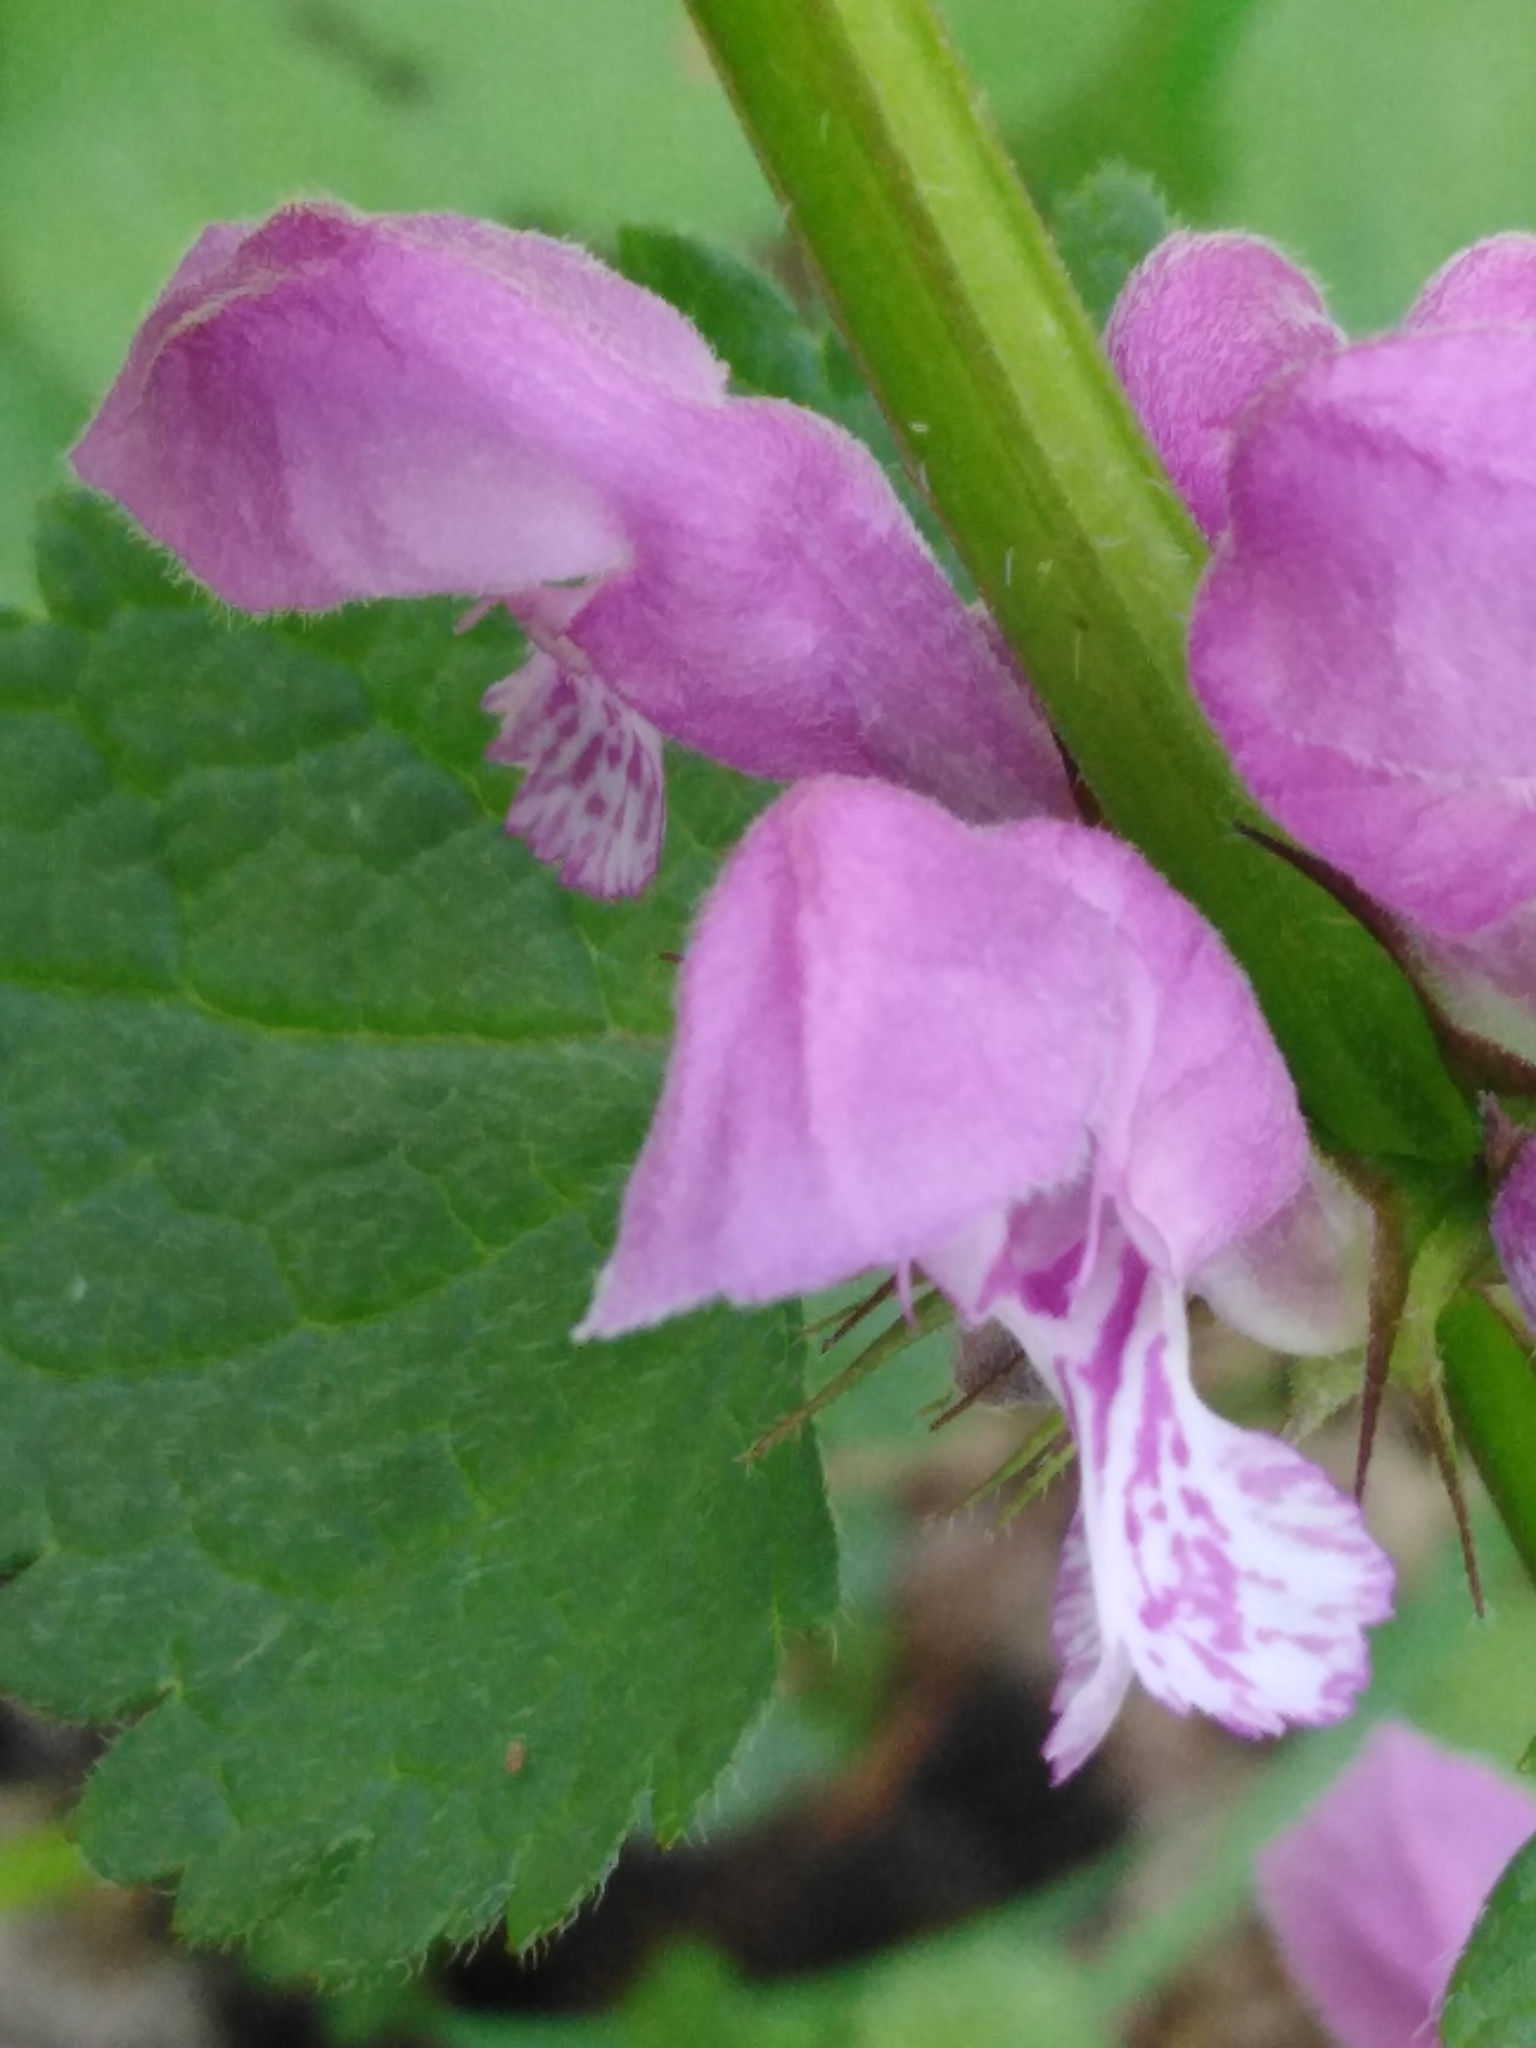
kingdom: Plantae
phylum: Tracheophyta
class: Magnoliopsida
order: Lamiales
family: Lamiaceae
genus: Lamium
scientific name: Lamium maculatum
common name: Spotted dead-nettle
